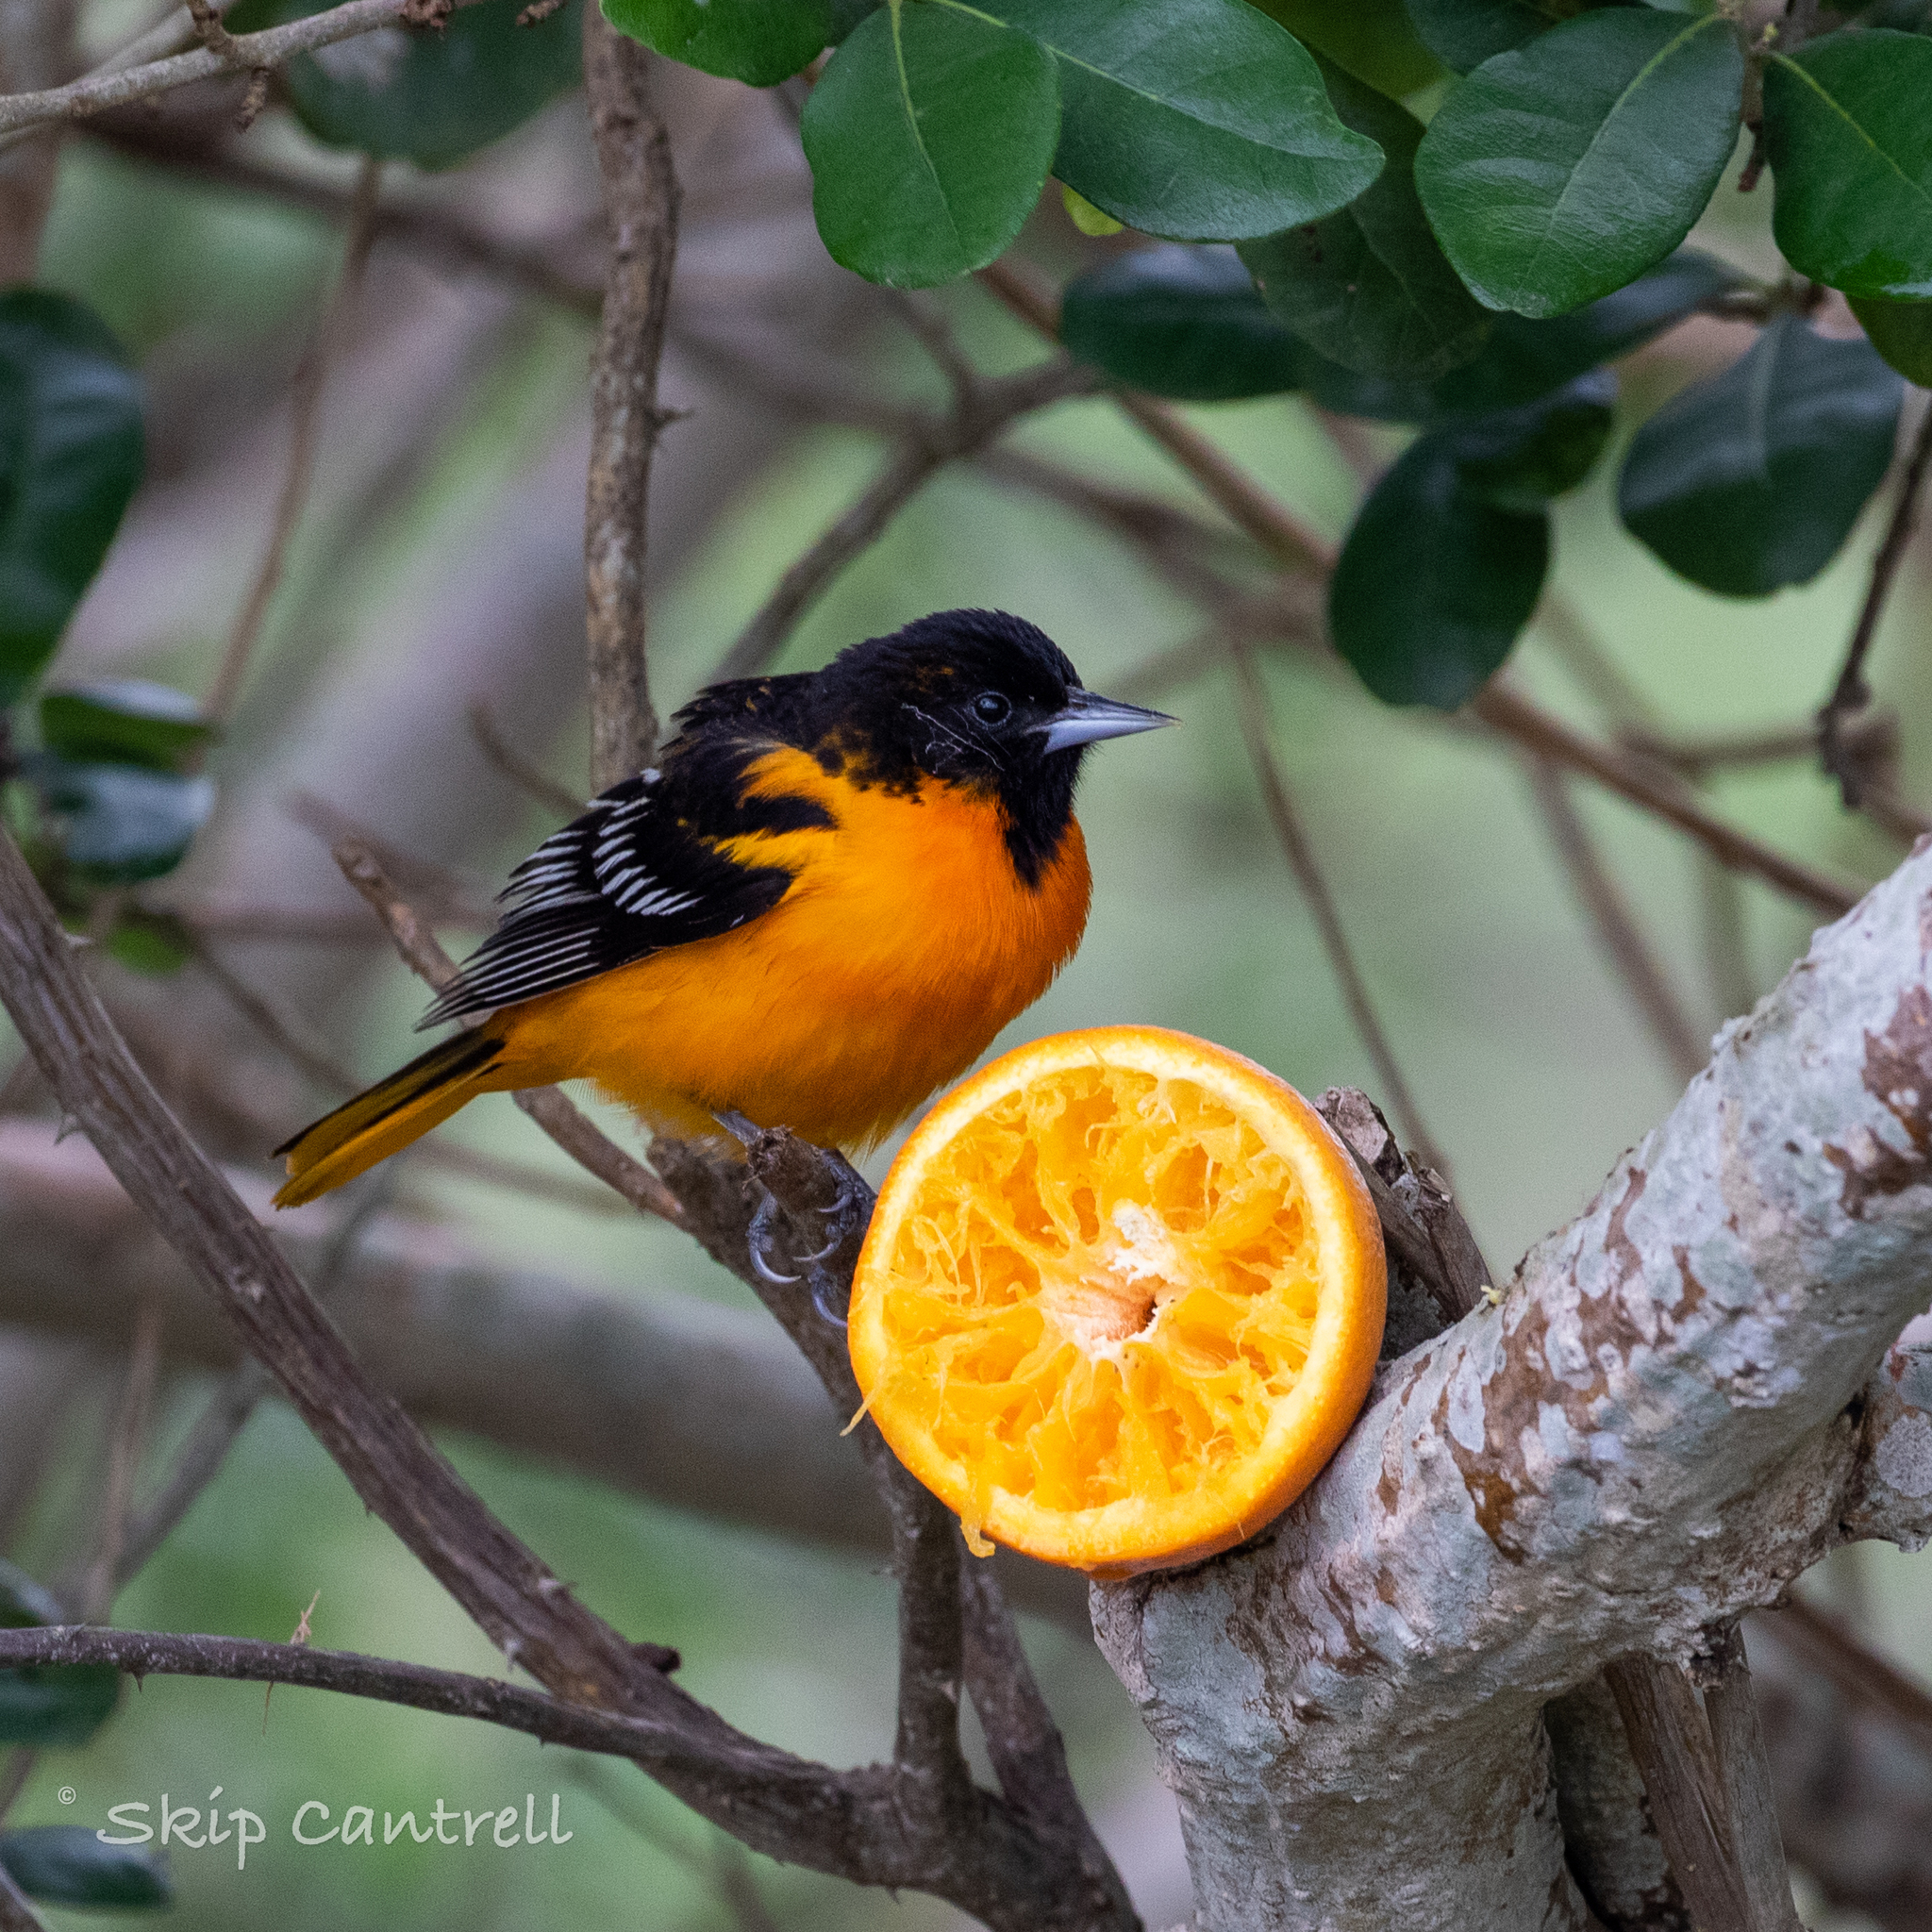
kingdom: Animalia
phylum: Chordata
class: Aves
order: Passeriformes
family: Icteridae
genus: Icterus
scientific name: Icterus galbula
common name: Baltimore oriole
